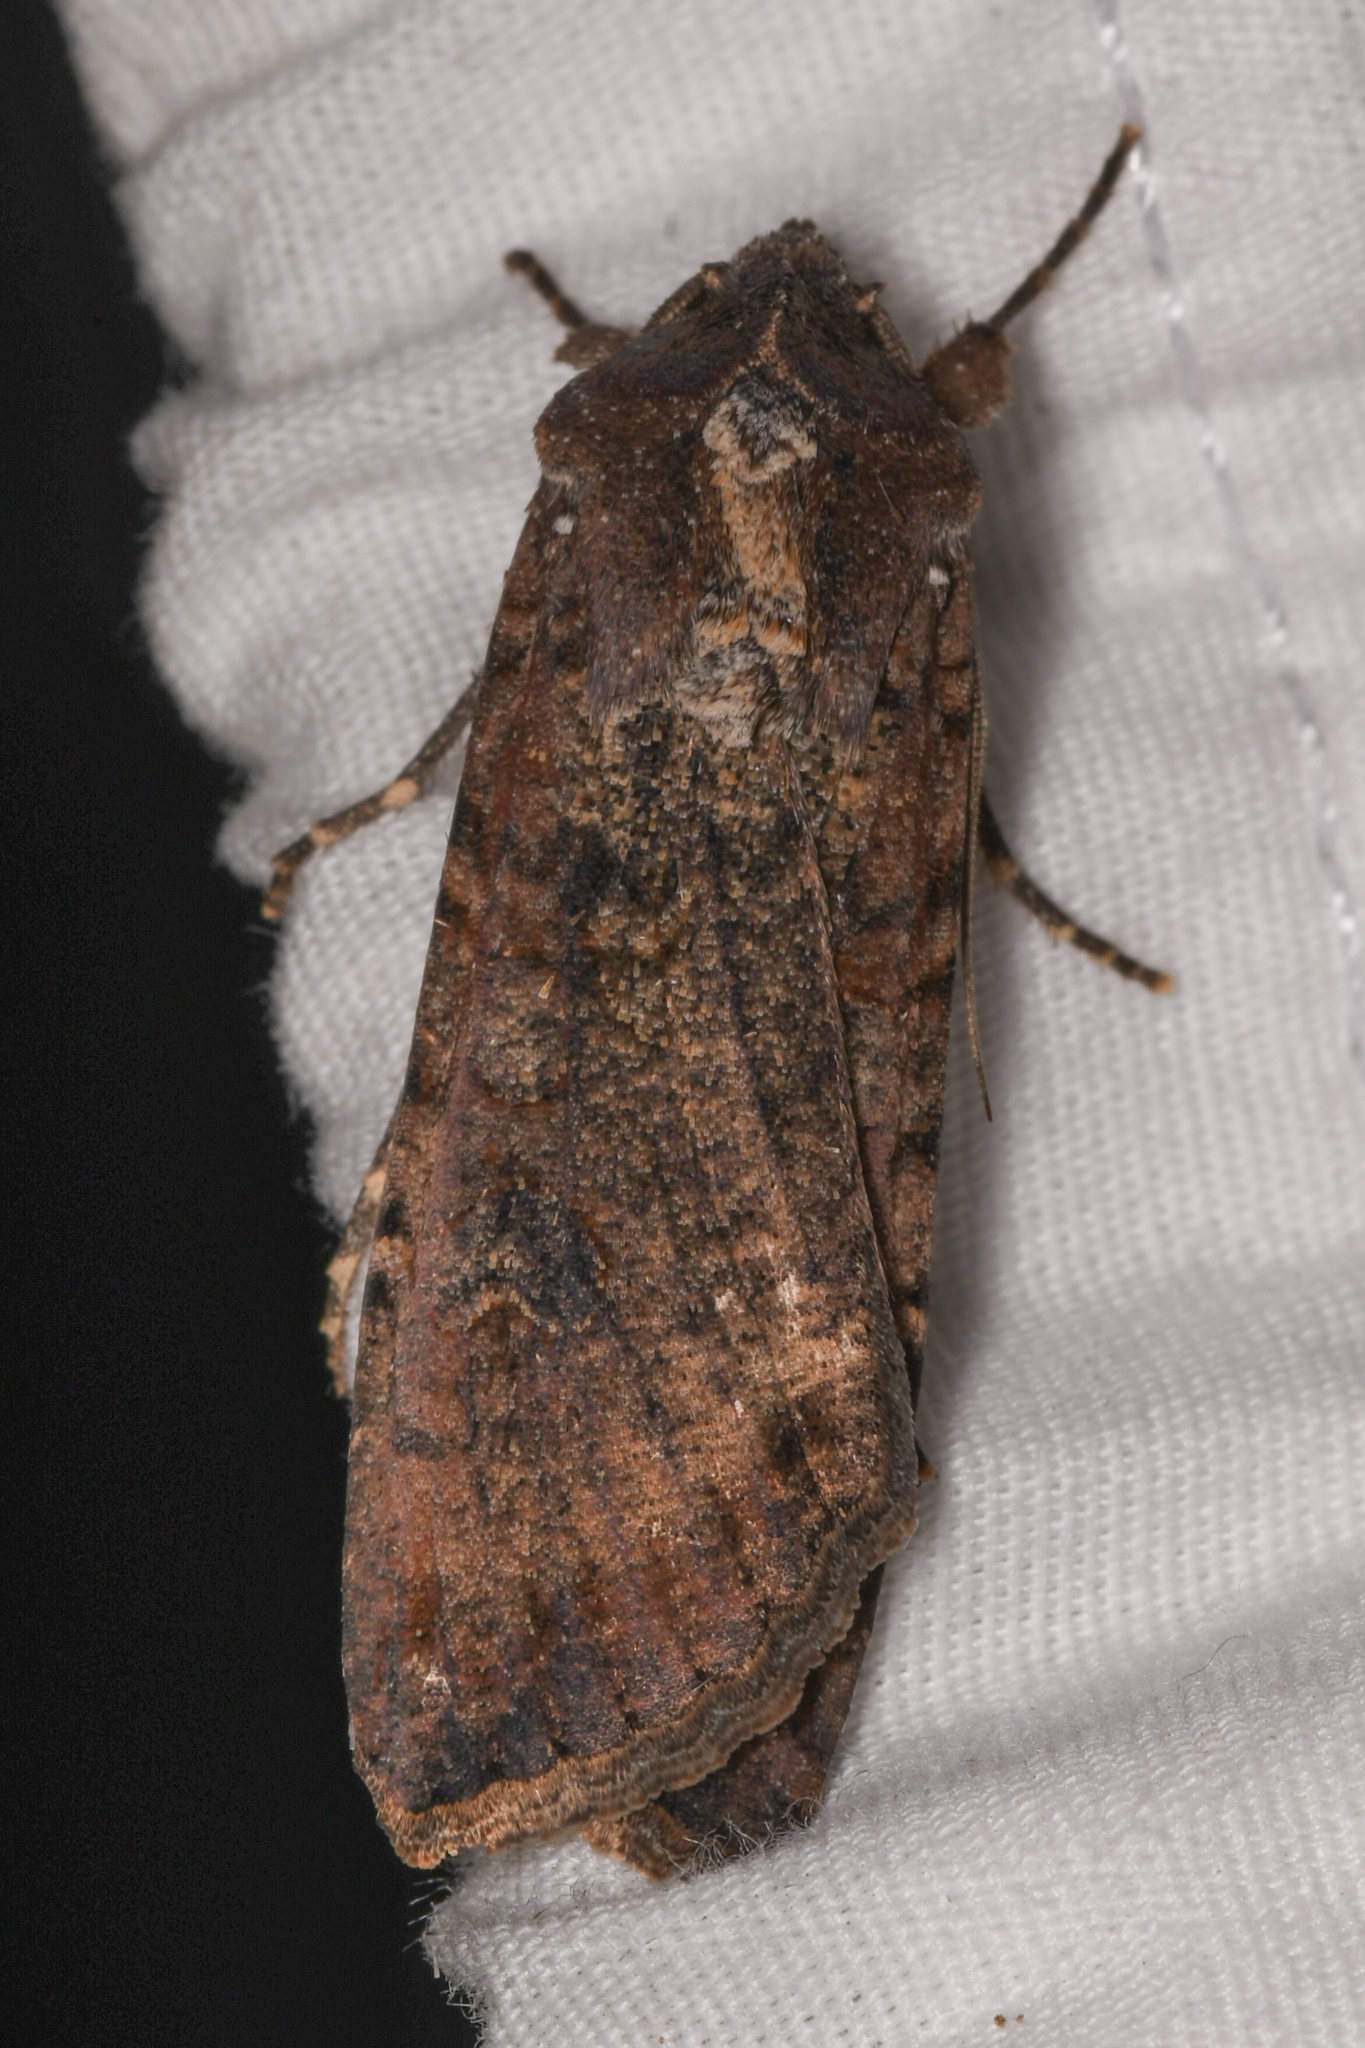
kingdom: Animalia
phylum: Arthropoda
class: Insecta
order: Lepidoptera
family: Noctuidae
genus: Peridroma
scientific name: Peridroma saucia
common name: Pearly underwing
